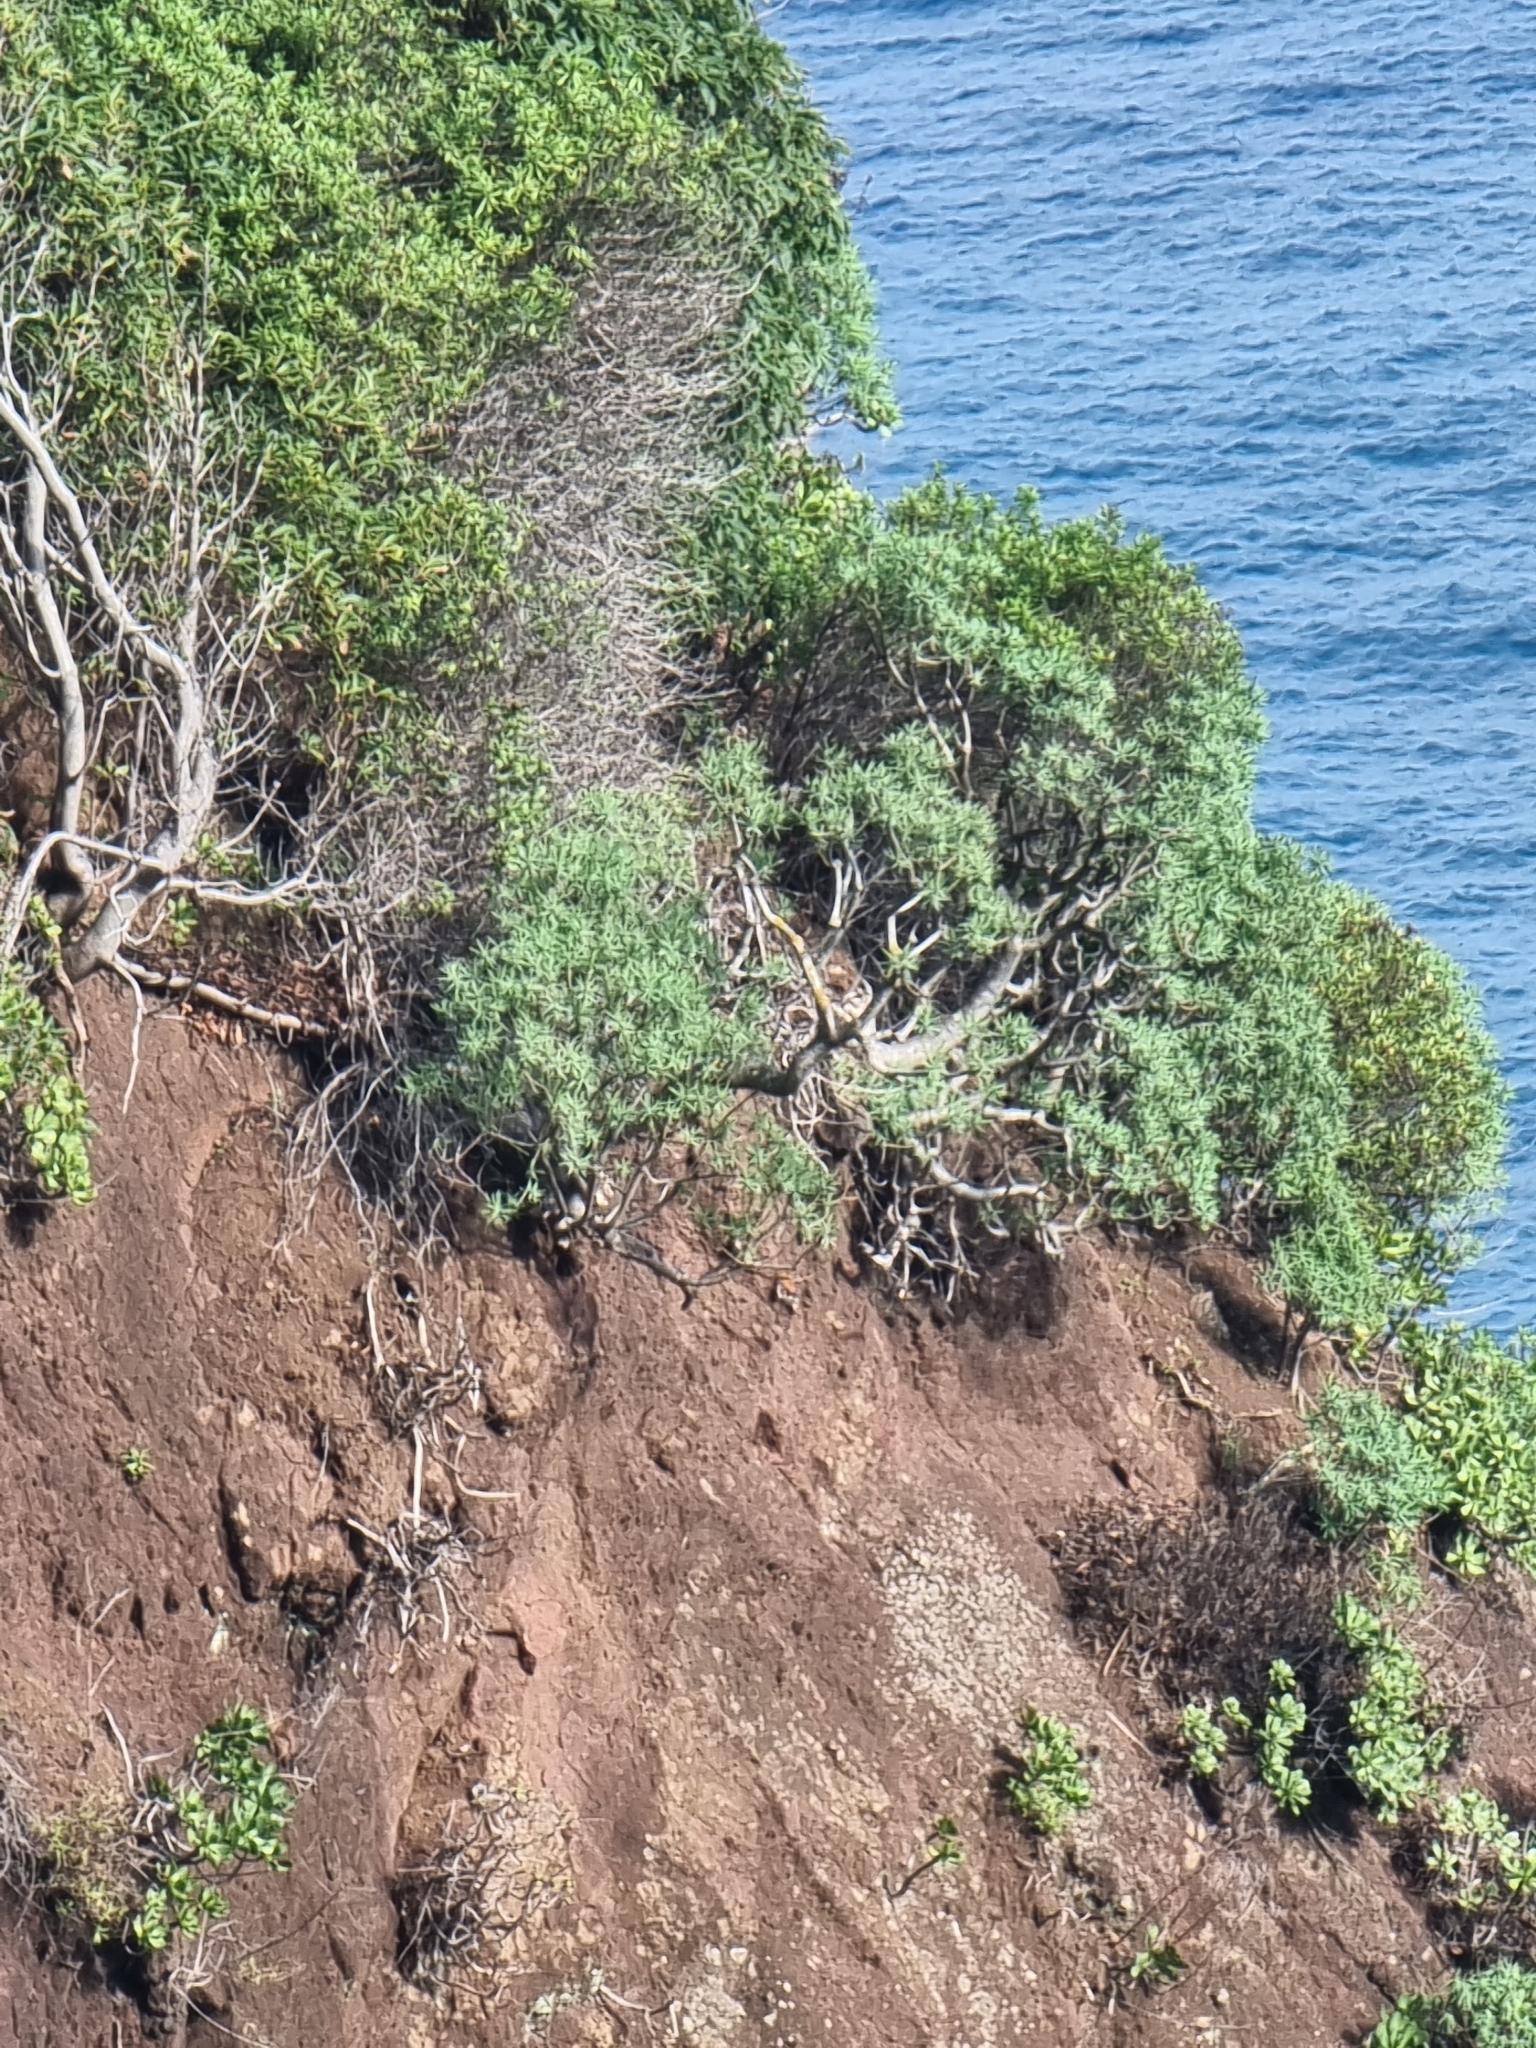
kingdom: Plantae
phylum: Tracheophyta
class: Magnoliopsida
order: Malpighiales
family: Euphorbiaceae
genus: Euphorbia
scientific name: Euphorbia piscatoria
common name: Fish-stunning spurge
